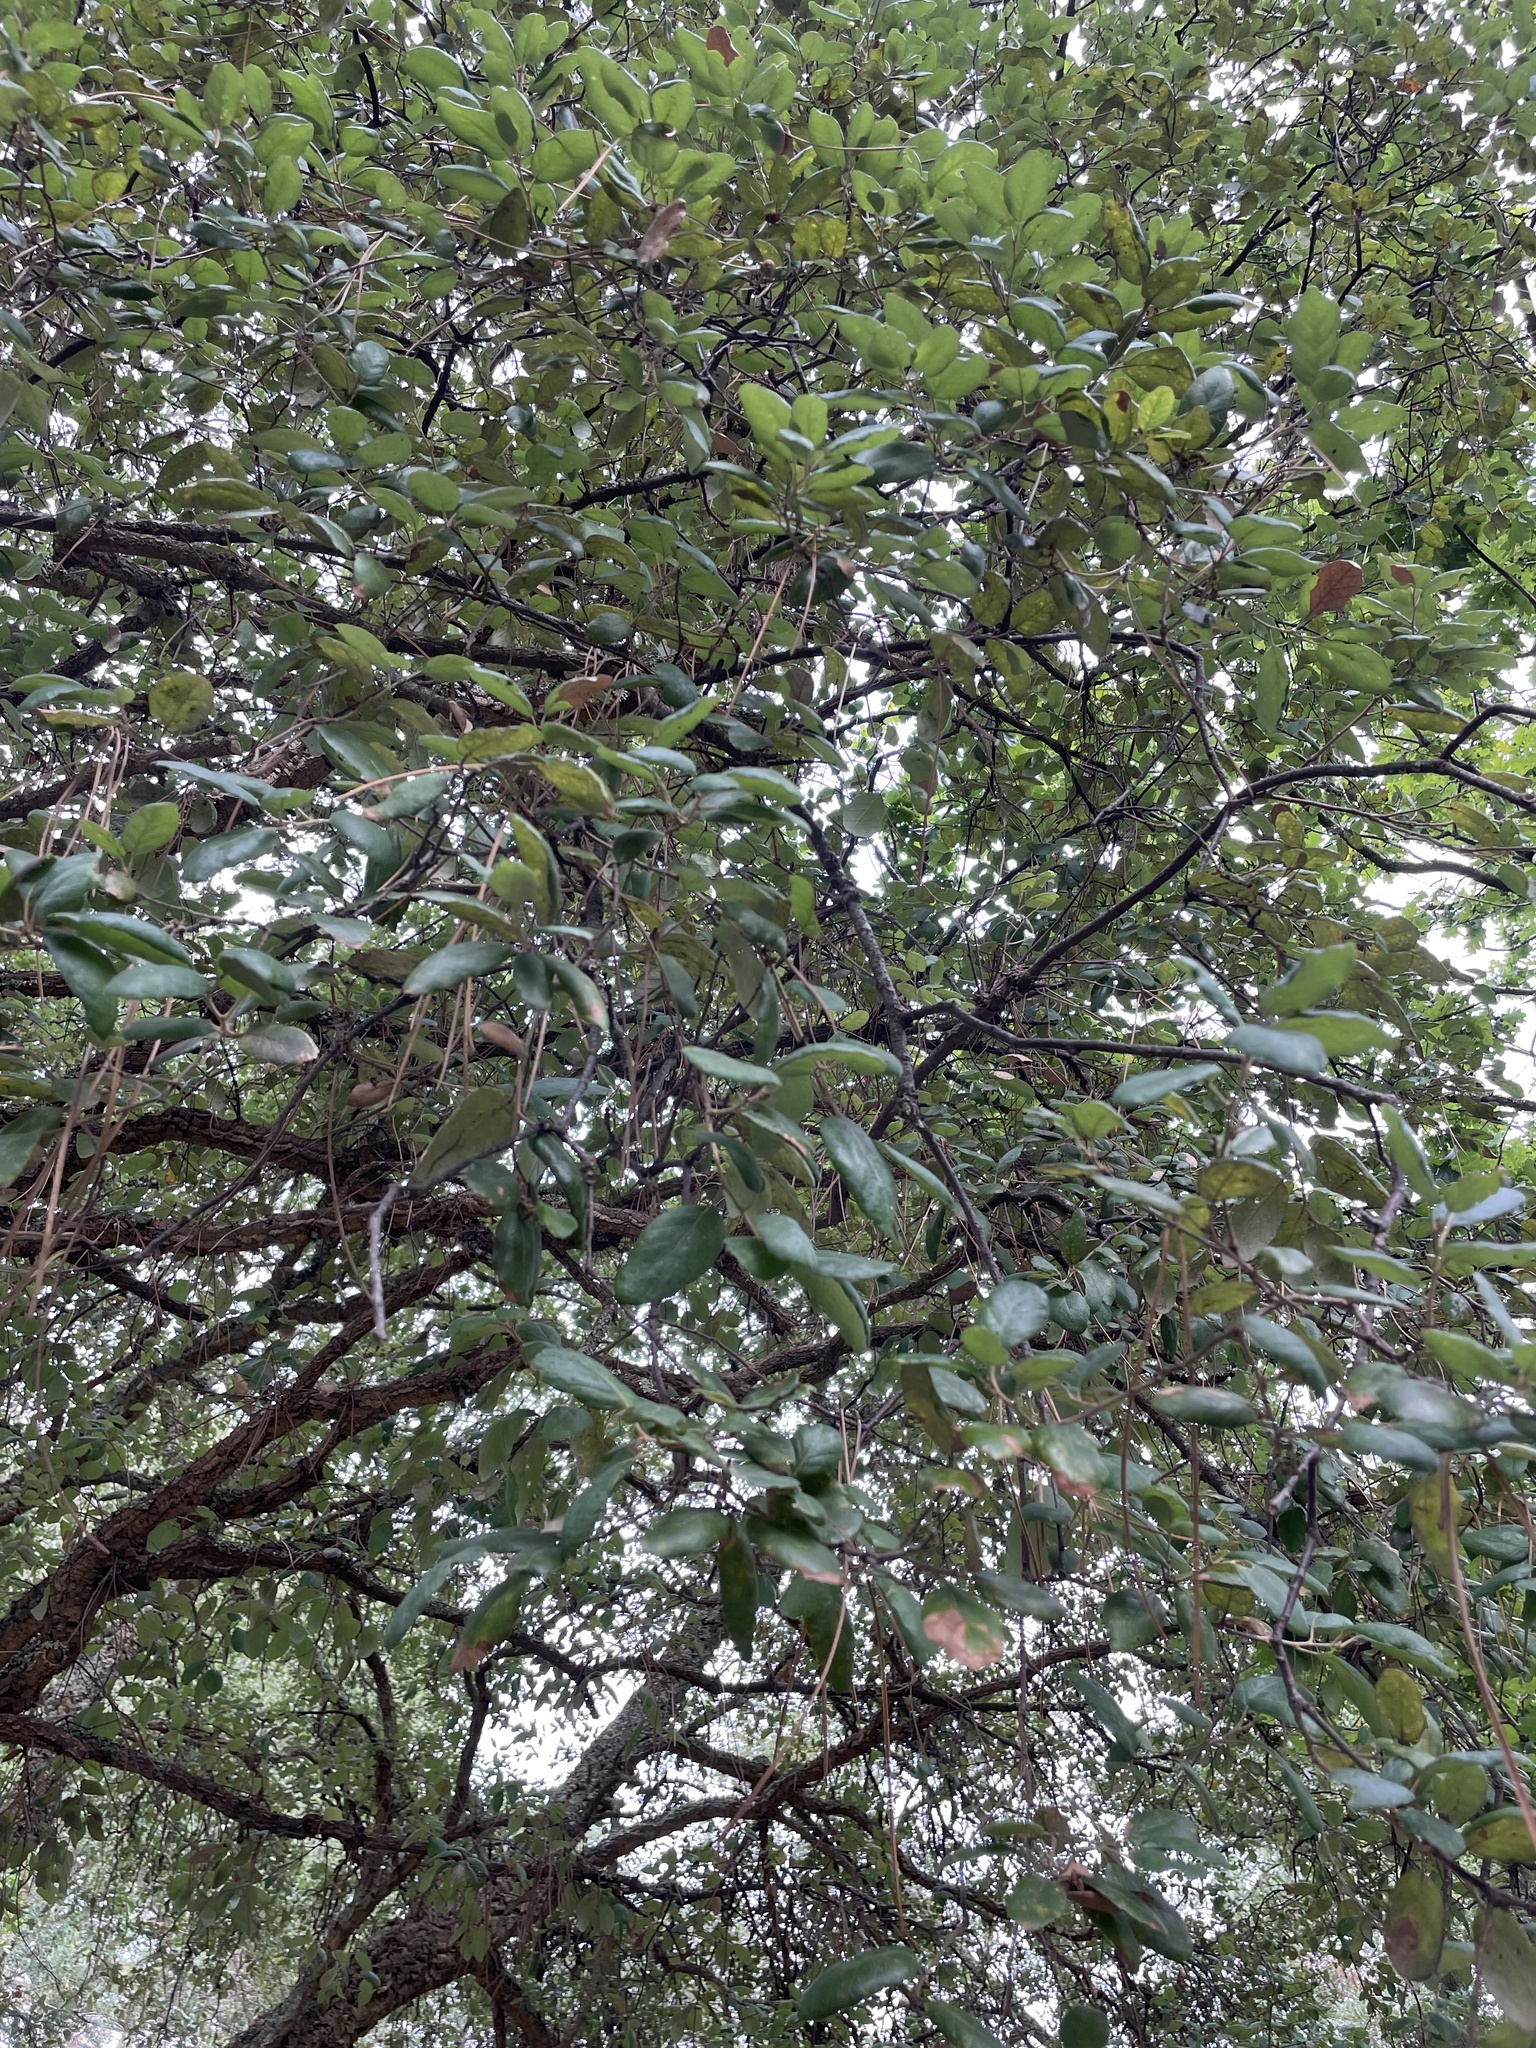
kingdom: Plantae
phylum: Tracheophyta
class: Magnoliopsida
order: Fagales
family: Fagaceae
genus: Quercus
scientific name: Quercus suber
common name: Cork oak
